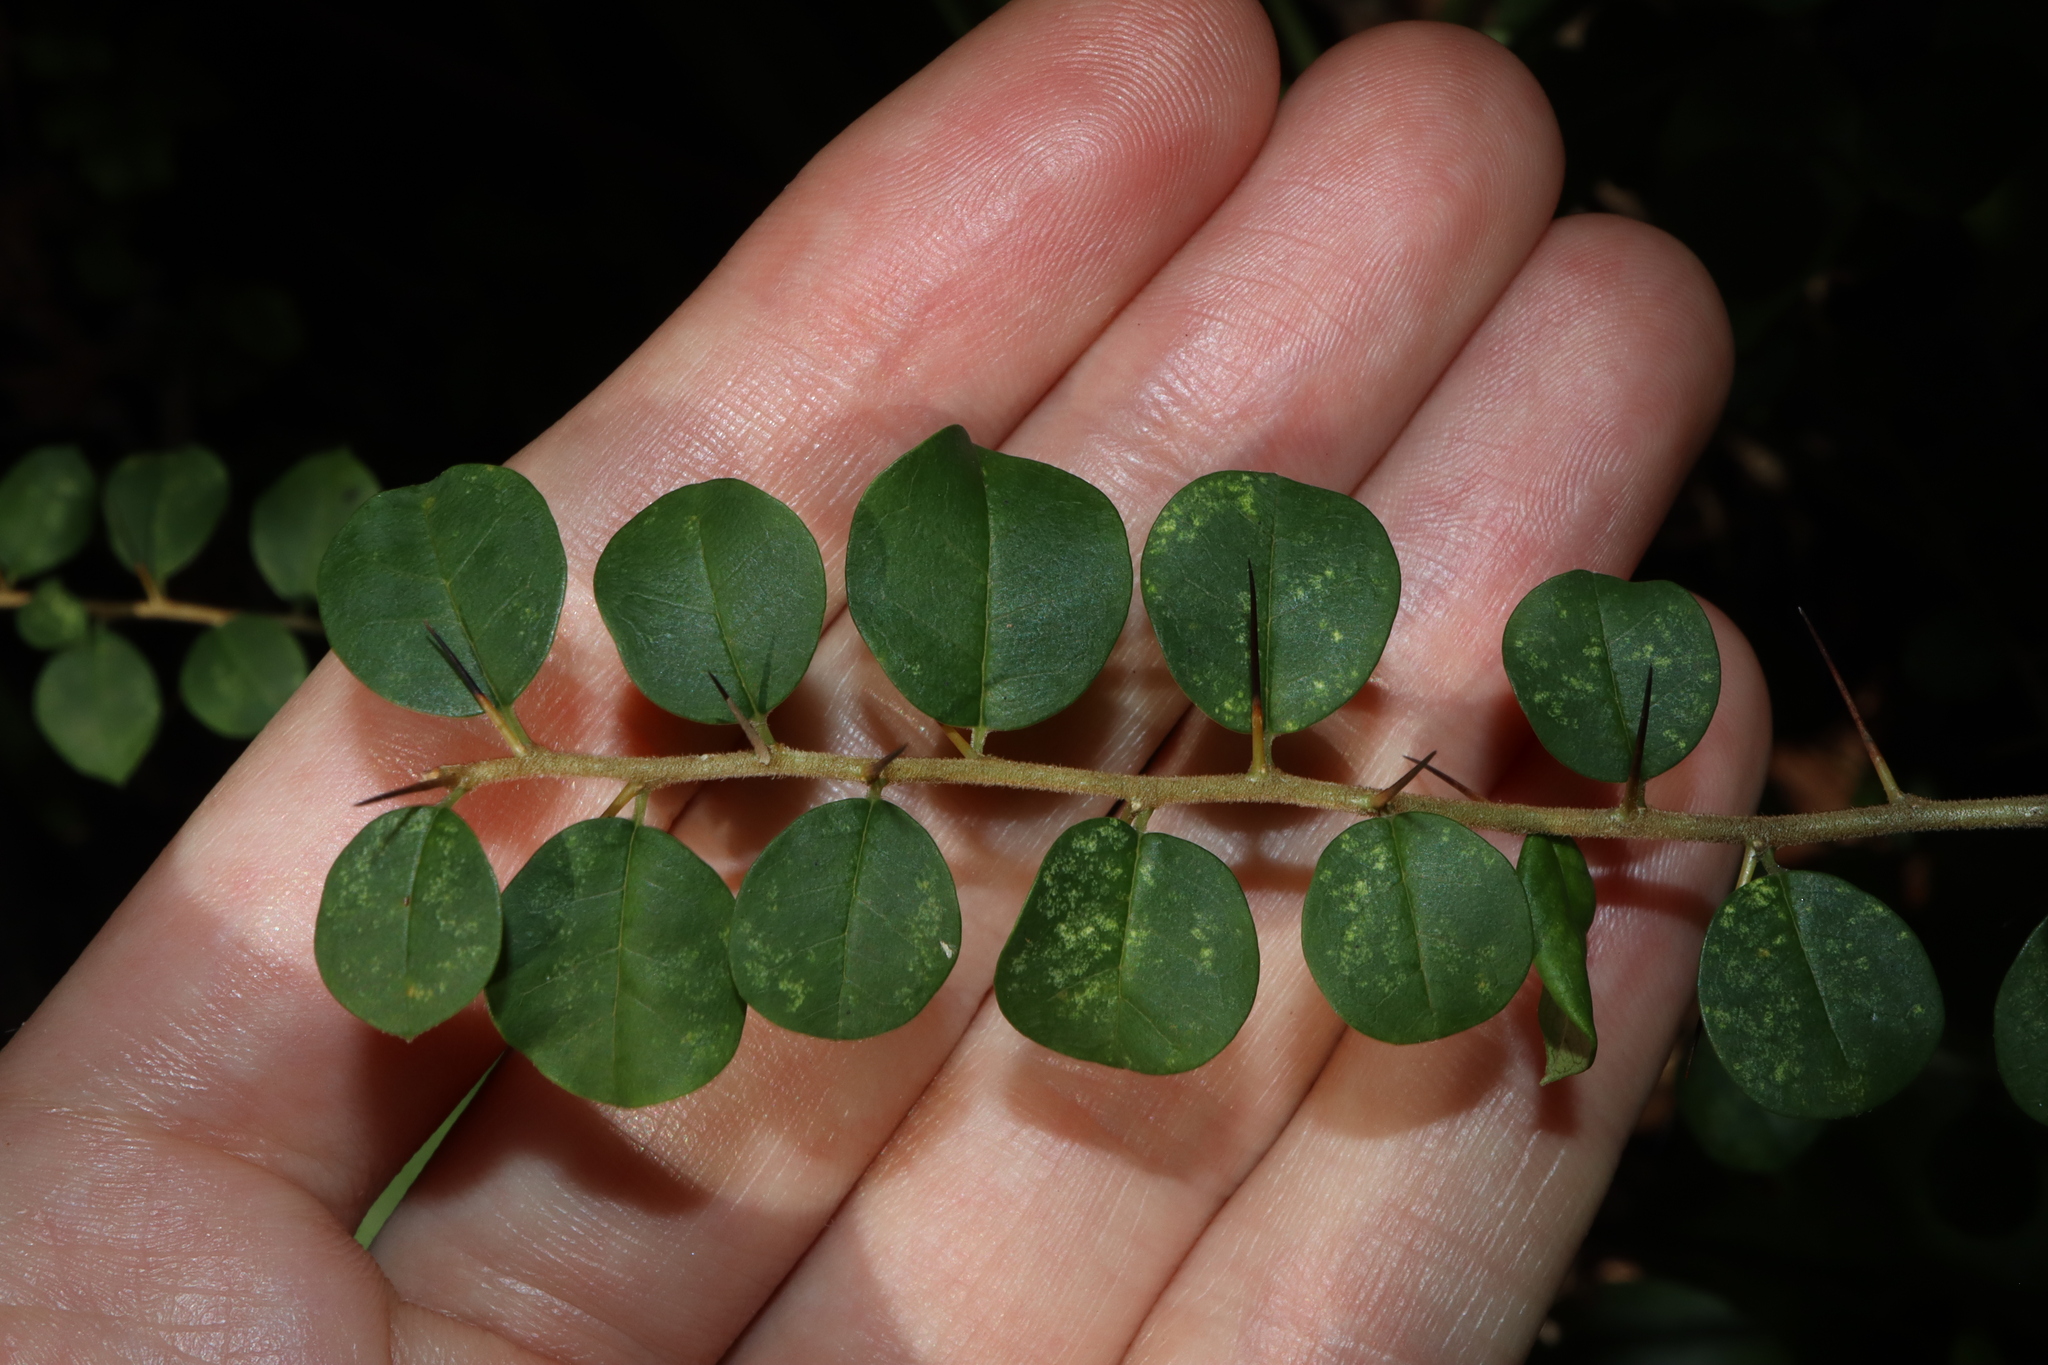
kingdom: Plantae
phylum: Tracheophyta
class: Magnoliopsida
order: Rosales
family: Moraceae
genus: Maclura
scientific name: Maclura cochinchinensis
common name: Cockspurthorn
